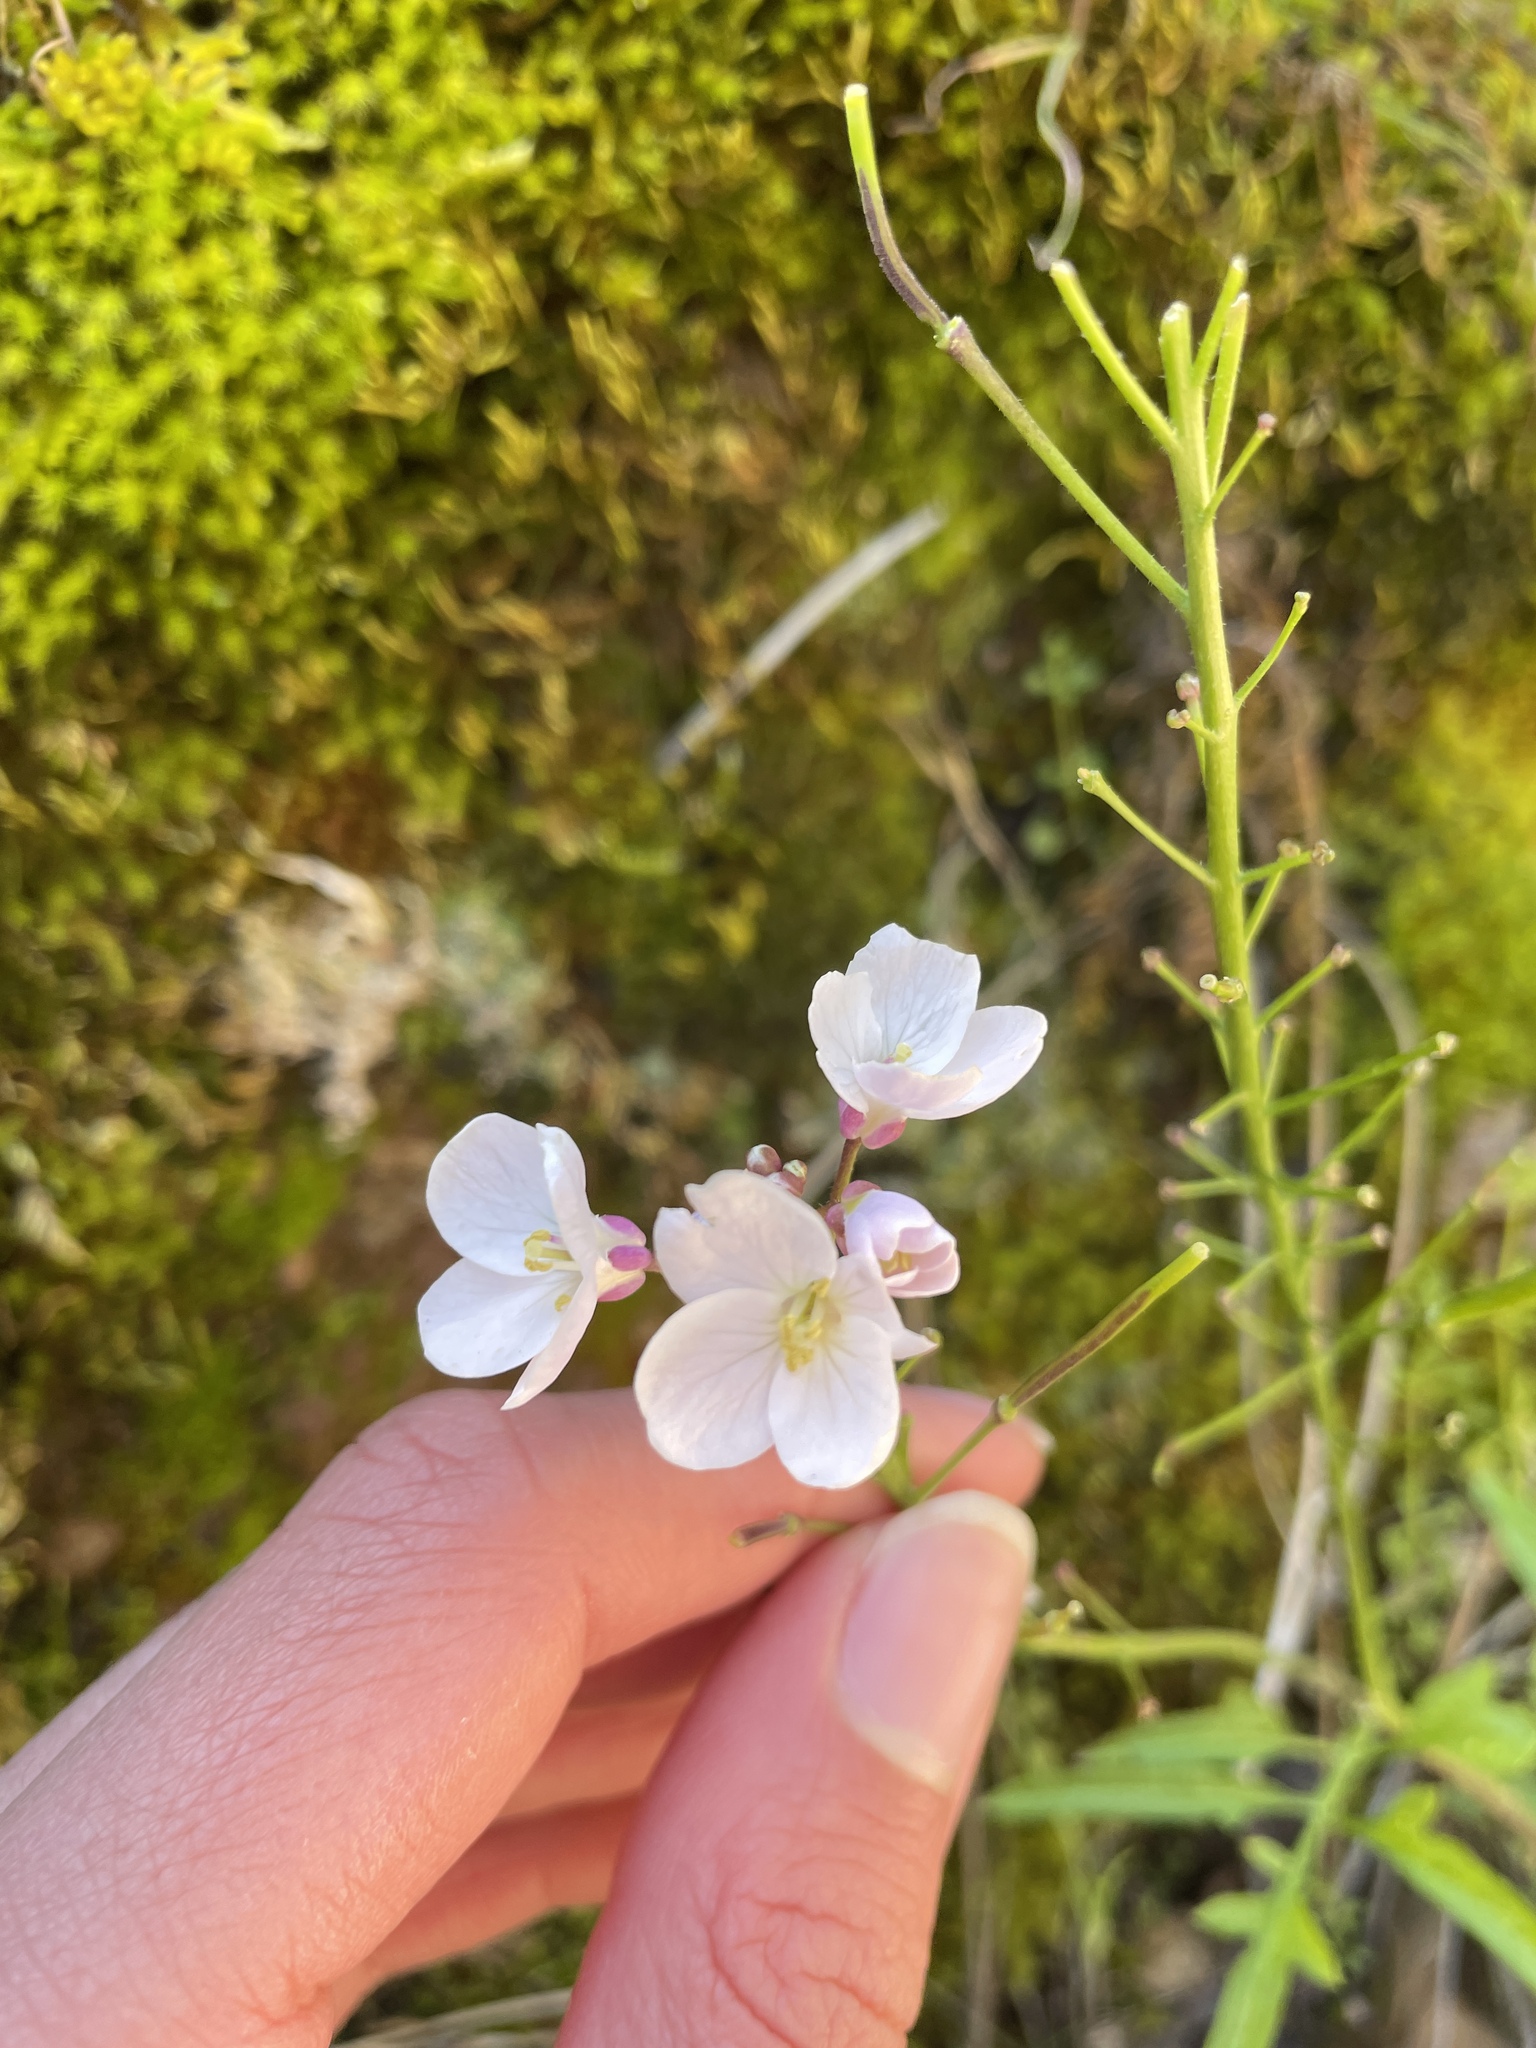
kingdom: Plantae
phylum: Tracheophyta
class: Magnoliopsida
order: Brassicales
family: Brassicaceae
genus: Cardamine
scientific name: Cardamine californica
